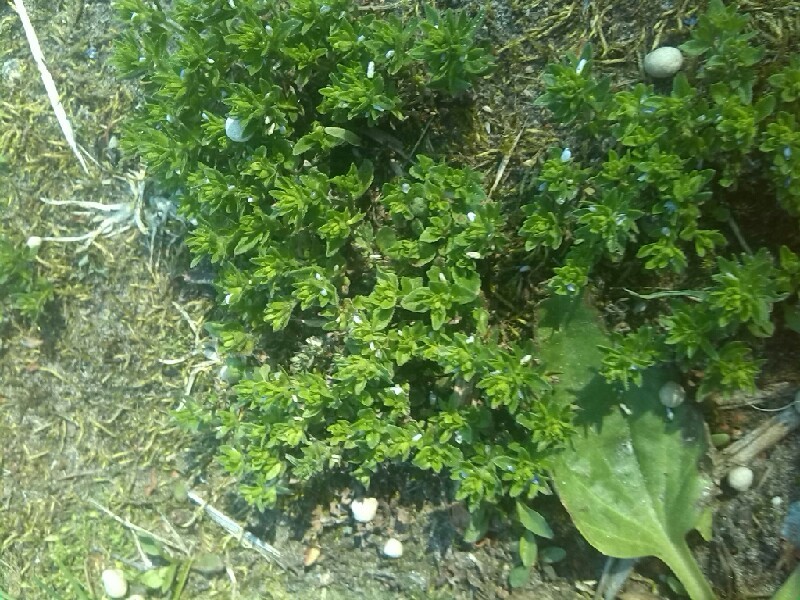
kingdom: Plantae
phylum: Tracheophyta
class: Magnoliopsida
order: Lamiales
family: Plantaginaceae
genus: Veronica
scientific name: Veronica arvensis
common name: Corn speedwell
